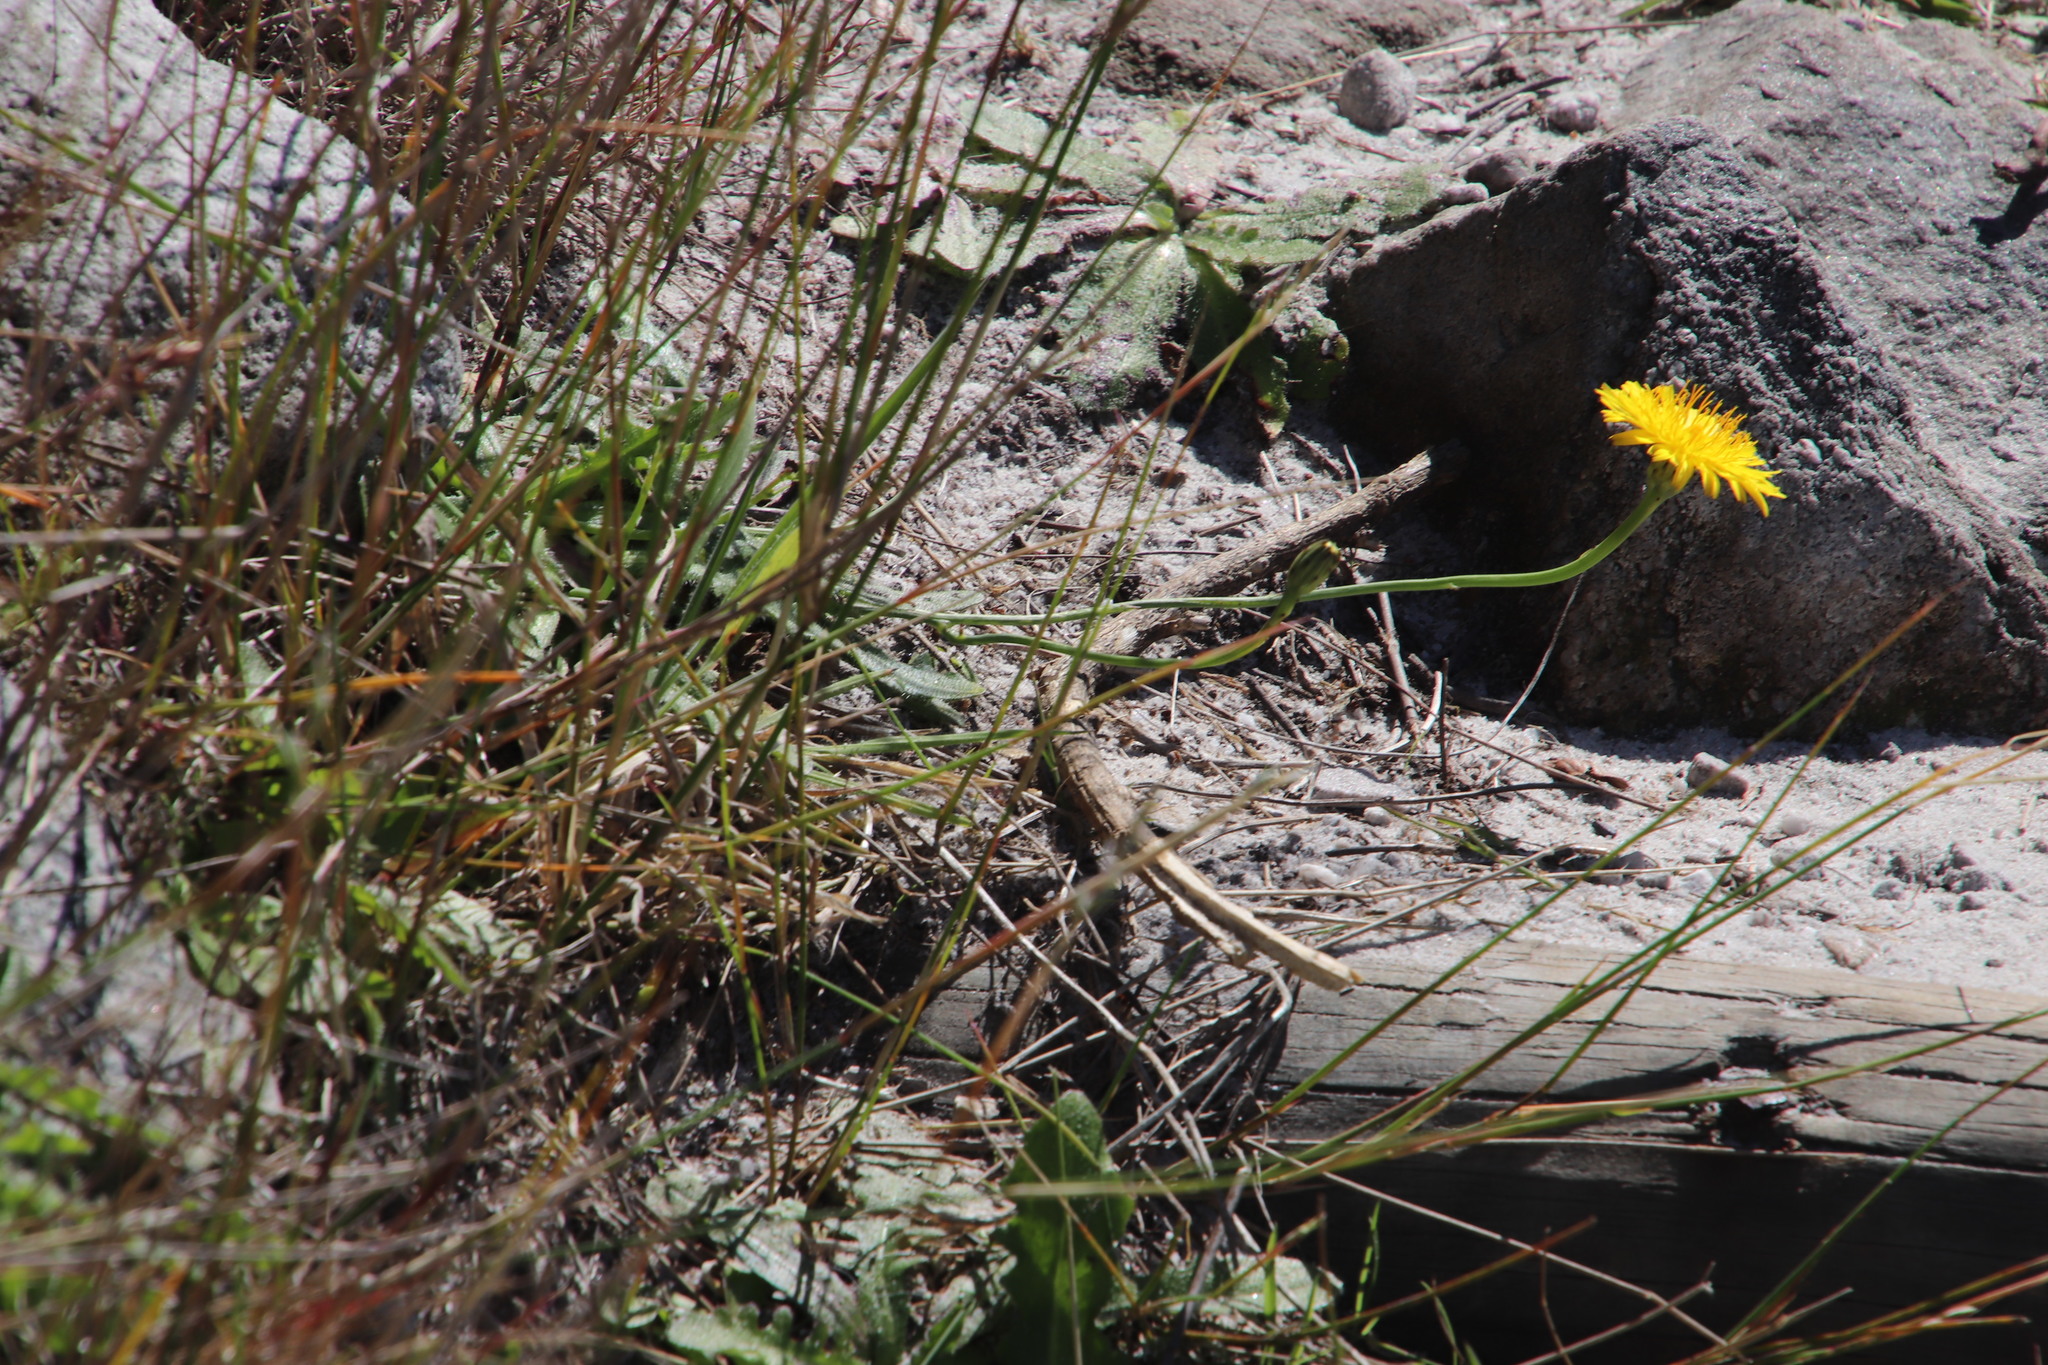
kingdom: Plantae
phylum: Tracheophyta
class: Magnoliopsida
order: Asterales
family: Asteraceae
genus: Hypochaeris
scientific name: Hypochaeris radicata
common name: Flatweed
